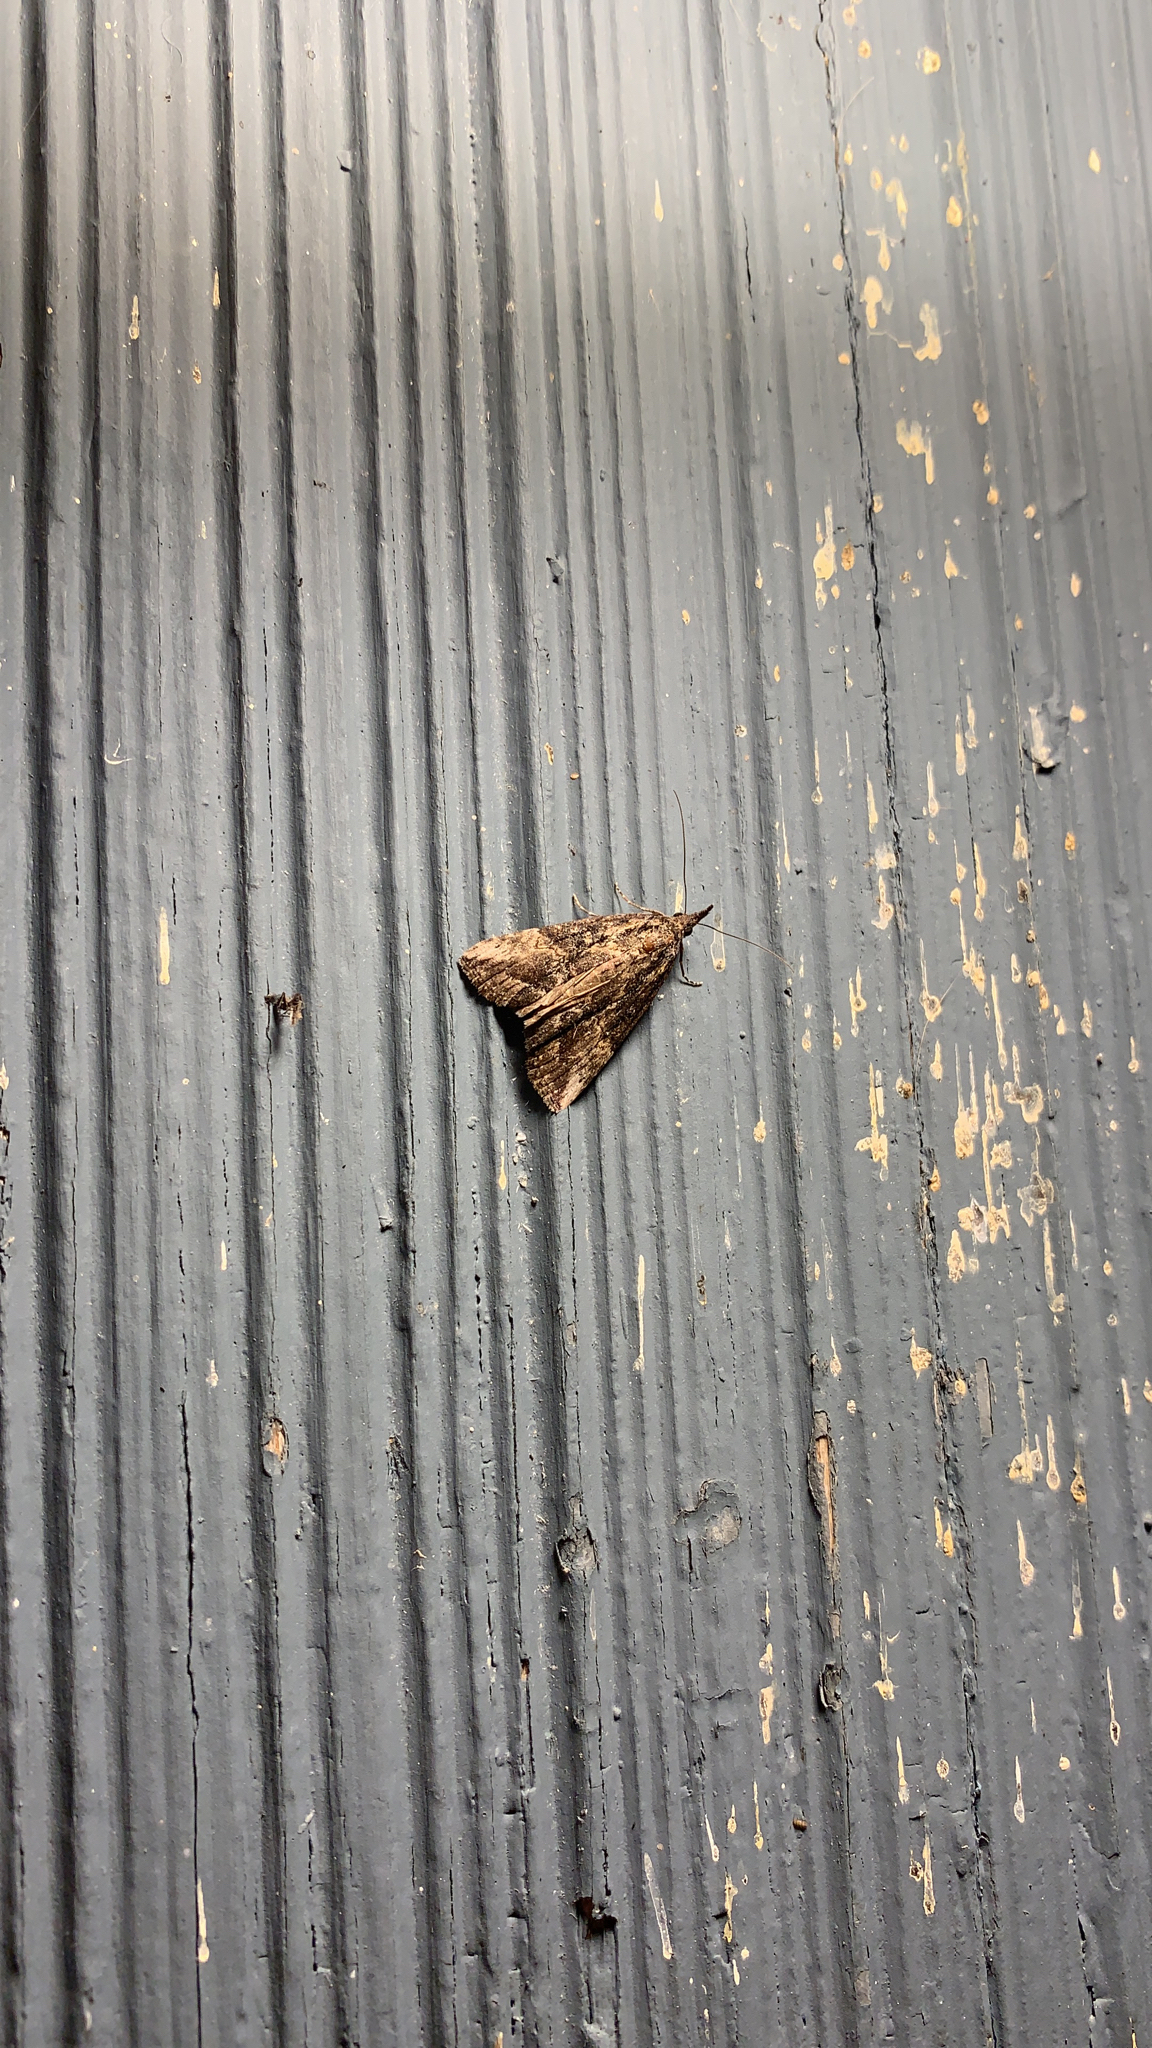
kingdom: Animalia
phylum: Arthropoda
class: Insecta
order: Lepidoptera
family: Erebidae
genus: Hypena
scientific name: Hypena scabra
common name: Green cloverworm
